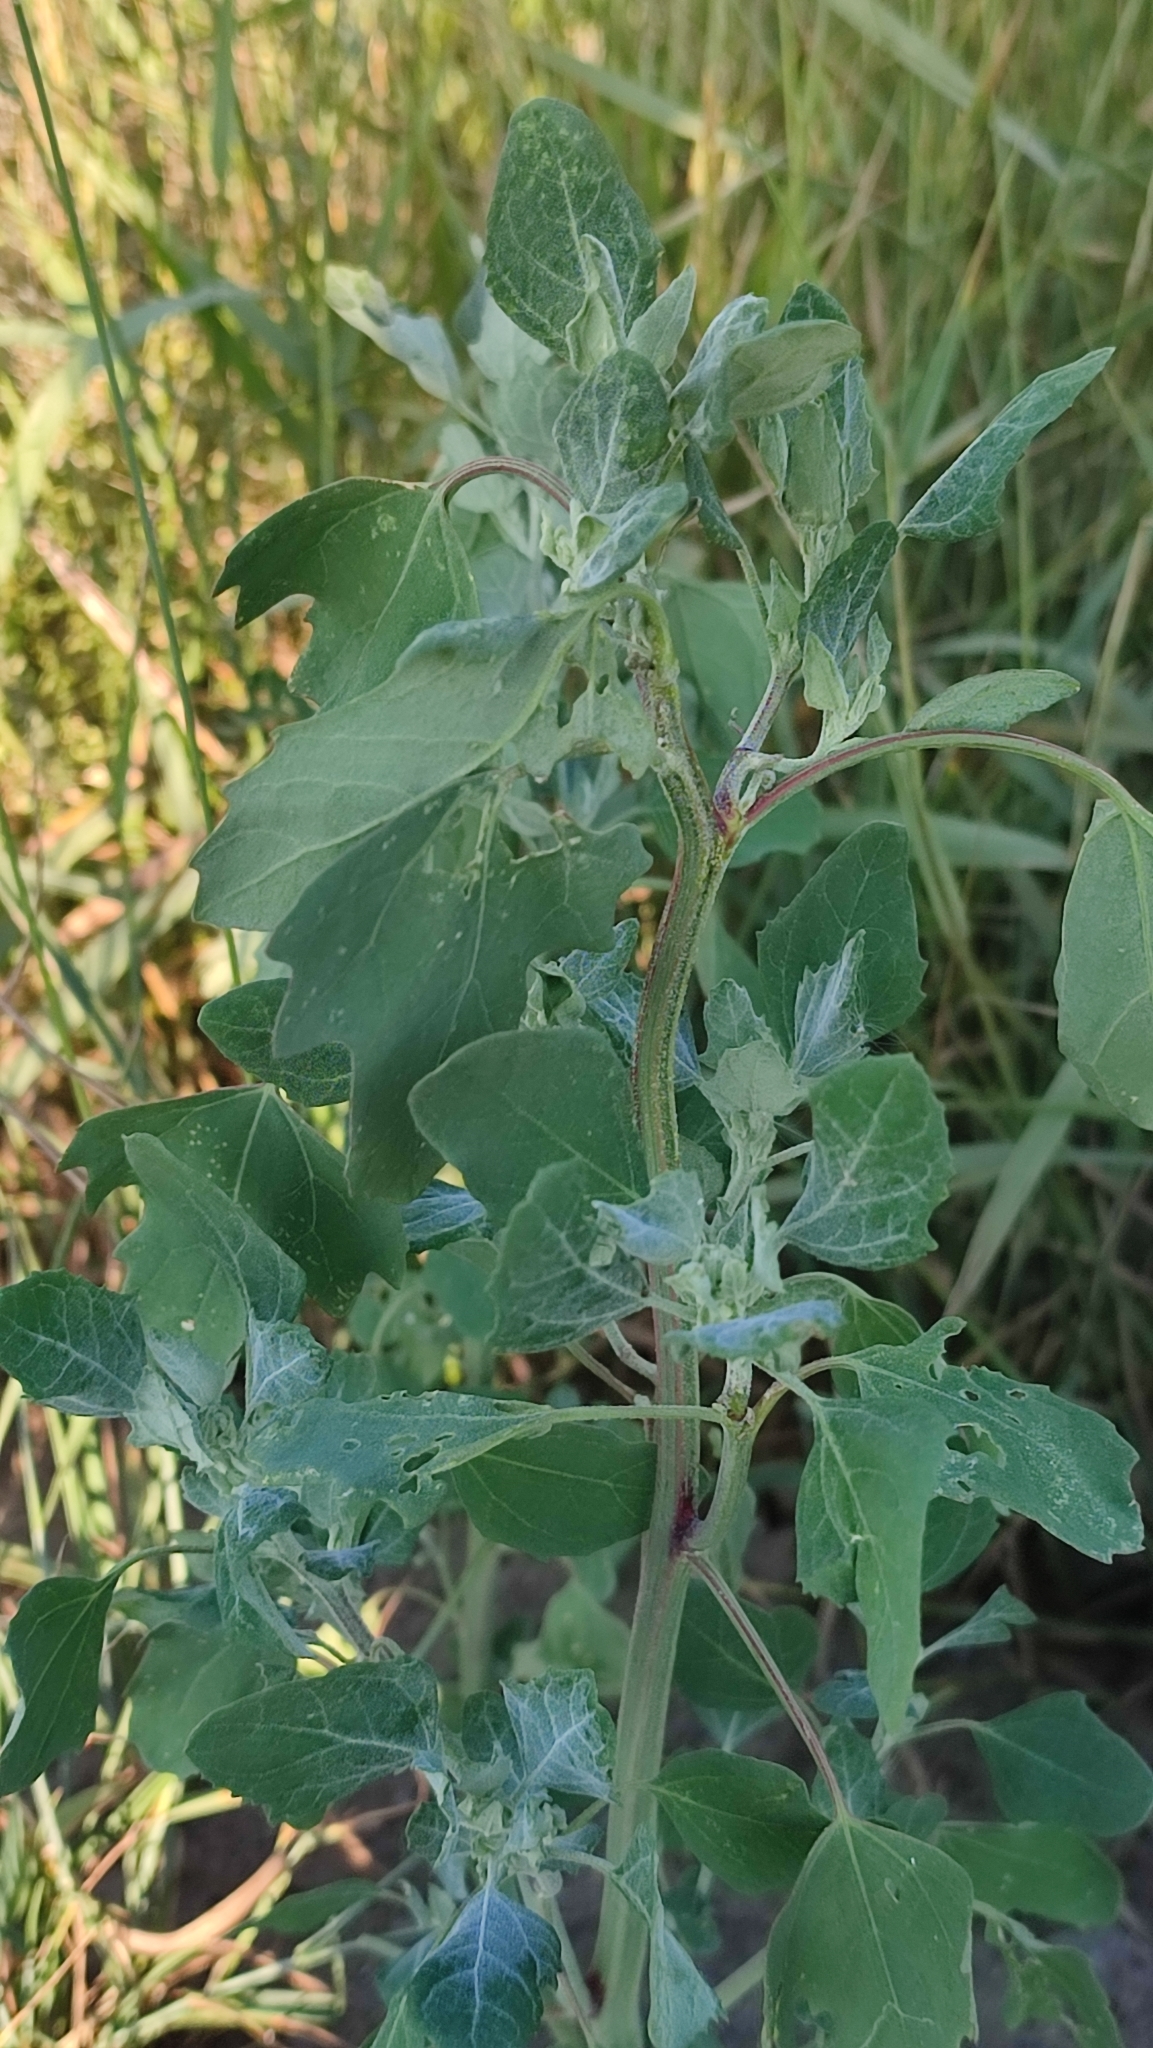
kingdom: Plantae
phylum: Tracheophyta
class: Magnoliopsida
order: Caryophyllales
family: Amaranthaceae
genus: Chenopodium
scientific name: Chenopodium album
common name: Fat-hen
